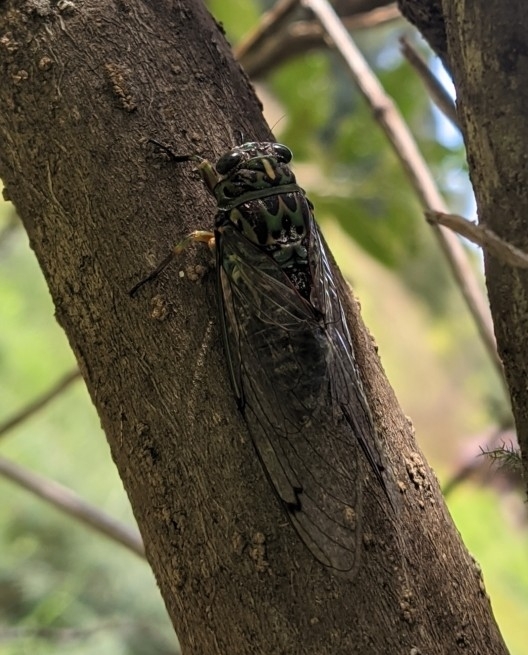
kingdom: Animalia
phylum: Arthropoda
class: Insecta
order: Hemiptera
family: Cicadidae
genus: Amphipsalta
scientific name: Amphipsalta zelandica
